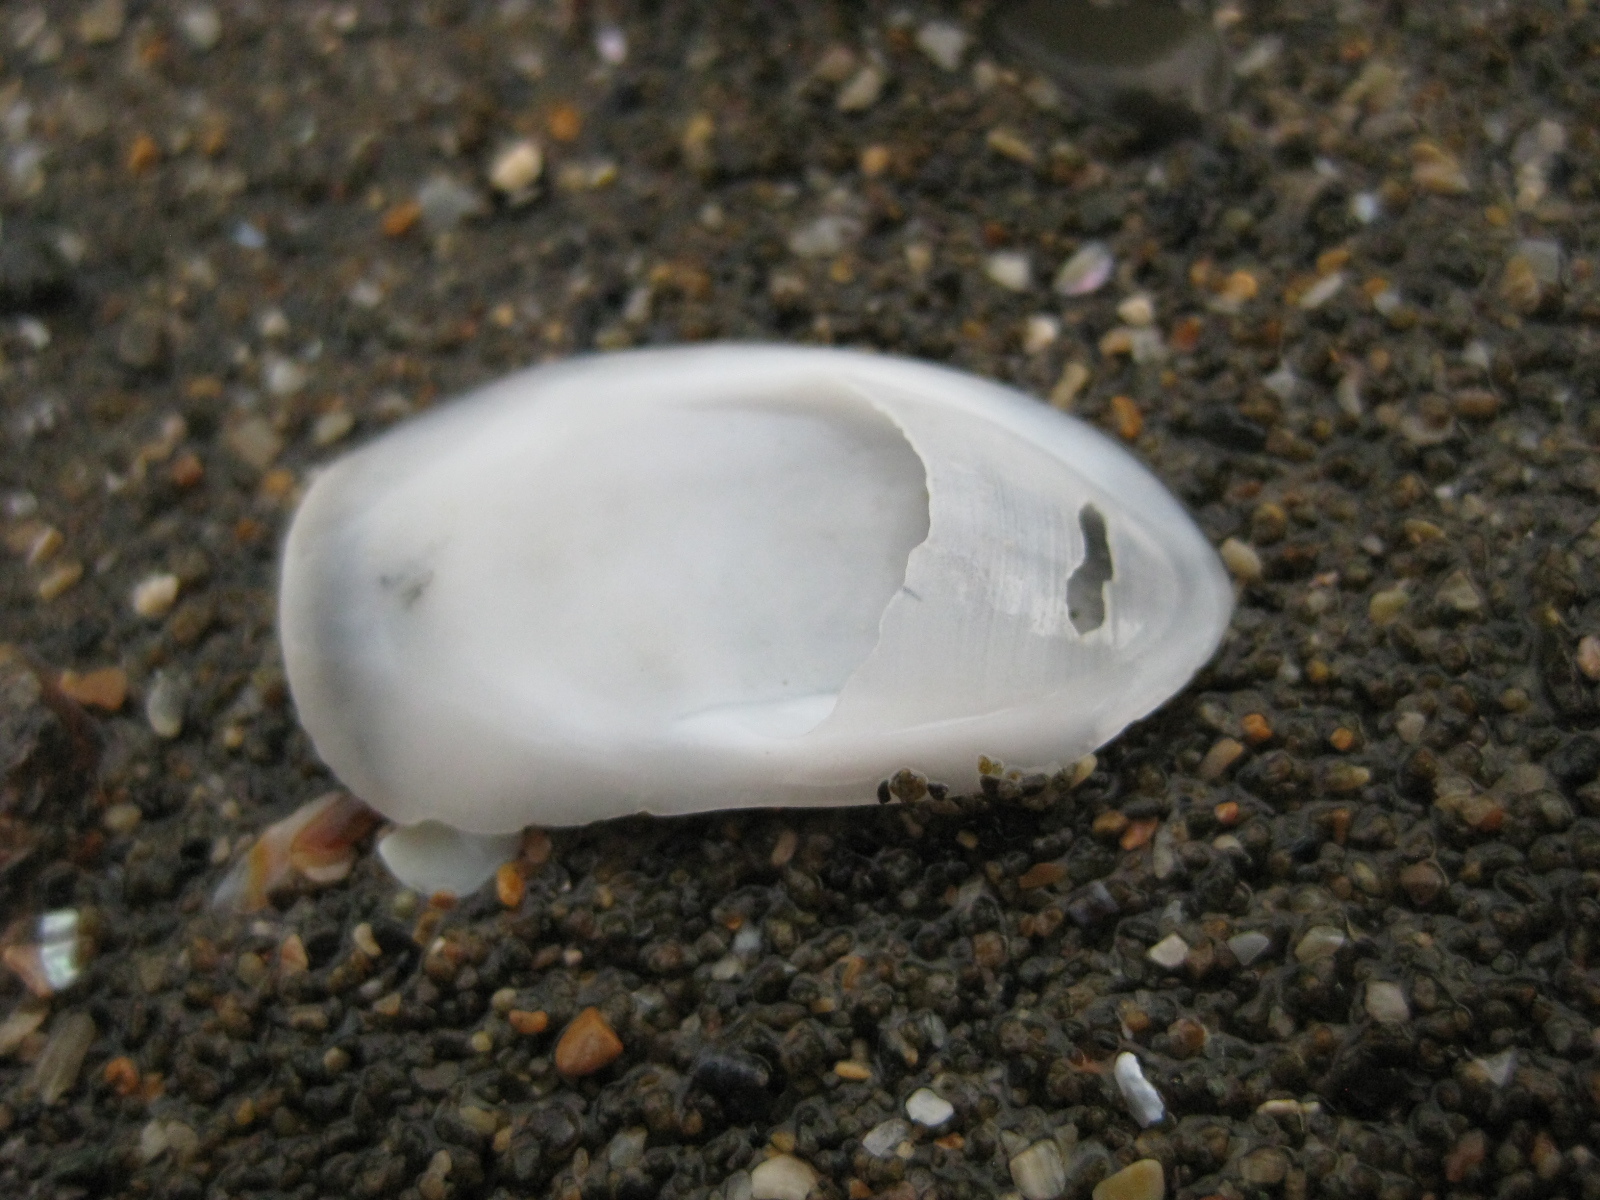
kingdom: Animalia
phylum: Mollusca
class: Gastropoda
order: Littorinimorpha
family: Calyptraeidae
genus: Maoricrypta
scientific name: Maoricrypta sodalis
